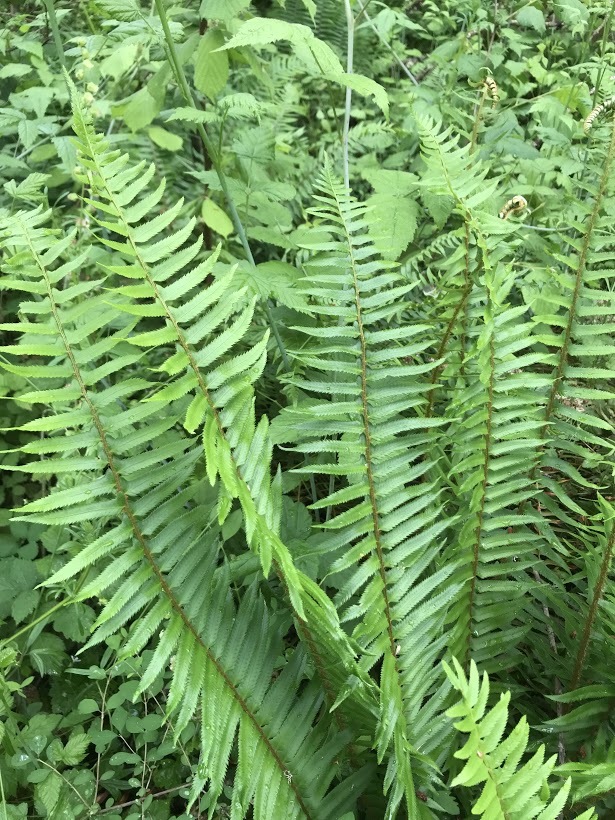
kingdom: Plantae
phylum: Tracheophyta
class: Polypodiopsida
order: Polypodiales
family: Dryopteridaceae
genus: Polystichum
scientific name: Polystichum munitum
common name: Western sword-fern
